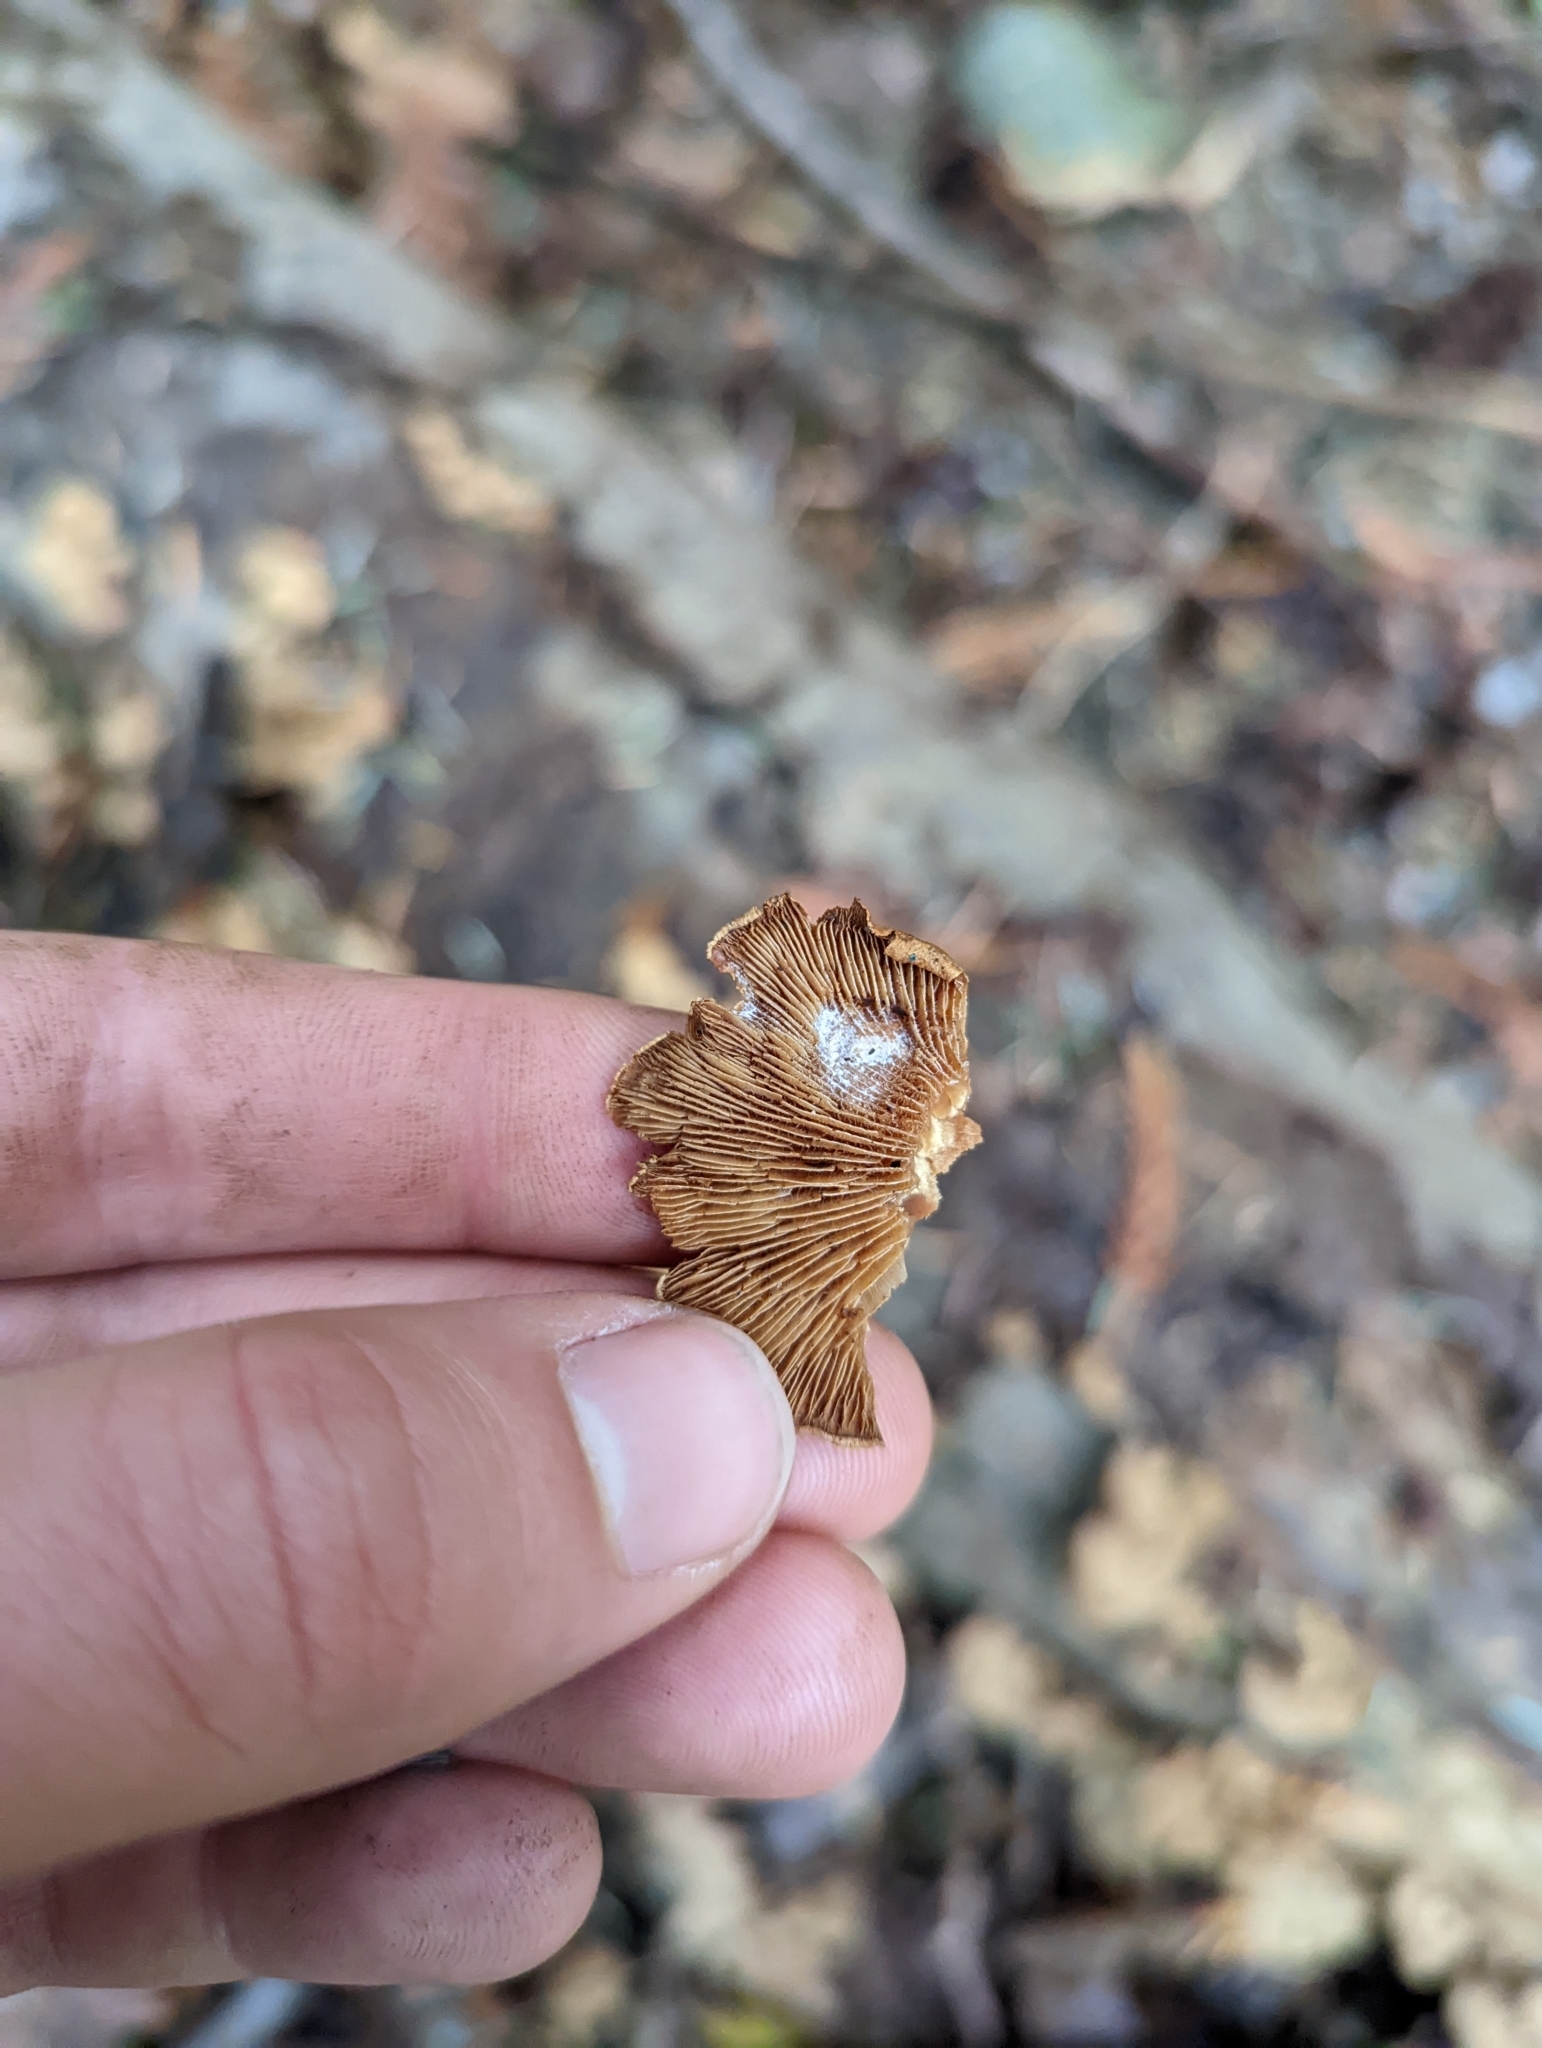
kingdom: Fungi
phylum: Basidiomycota
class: Agaricomycetes
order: Agaricales
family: Mycenaceae
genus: Panellus
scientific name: Panellus stipticus
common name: Bitter oysterling
